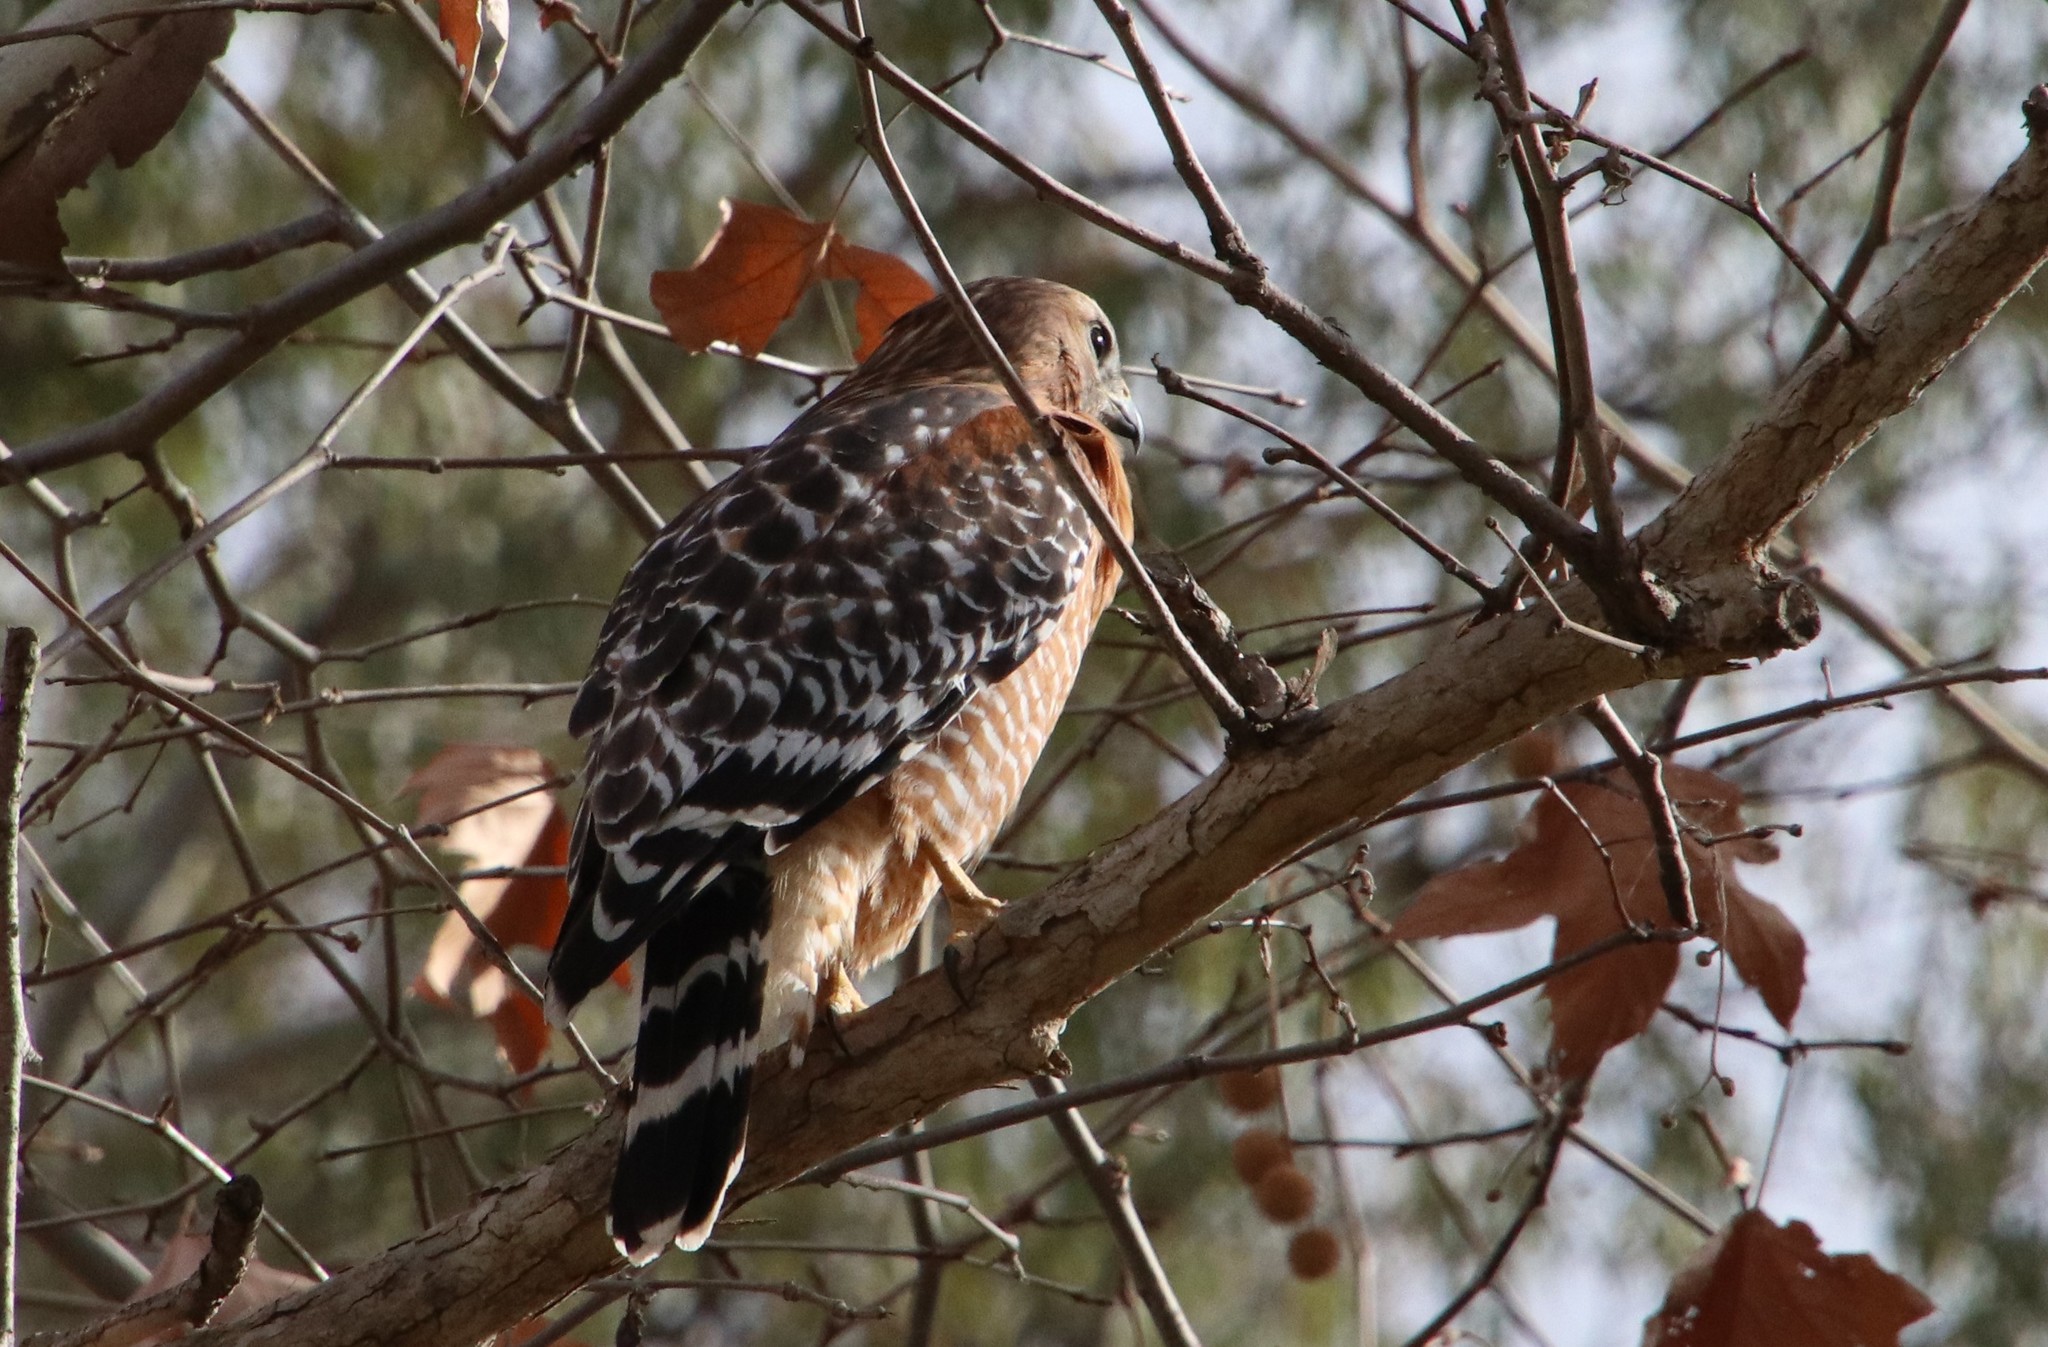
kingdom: Animalia
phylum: Chordata
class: Aves
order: Accipitriformes
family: Accipitridae
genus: Buteo
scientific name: Buteo lineatus
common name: Red-shouldered hawk
